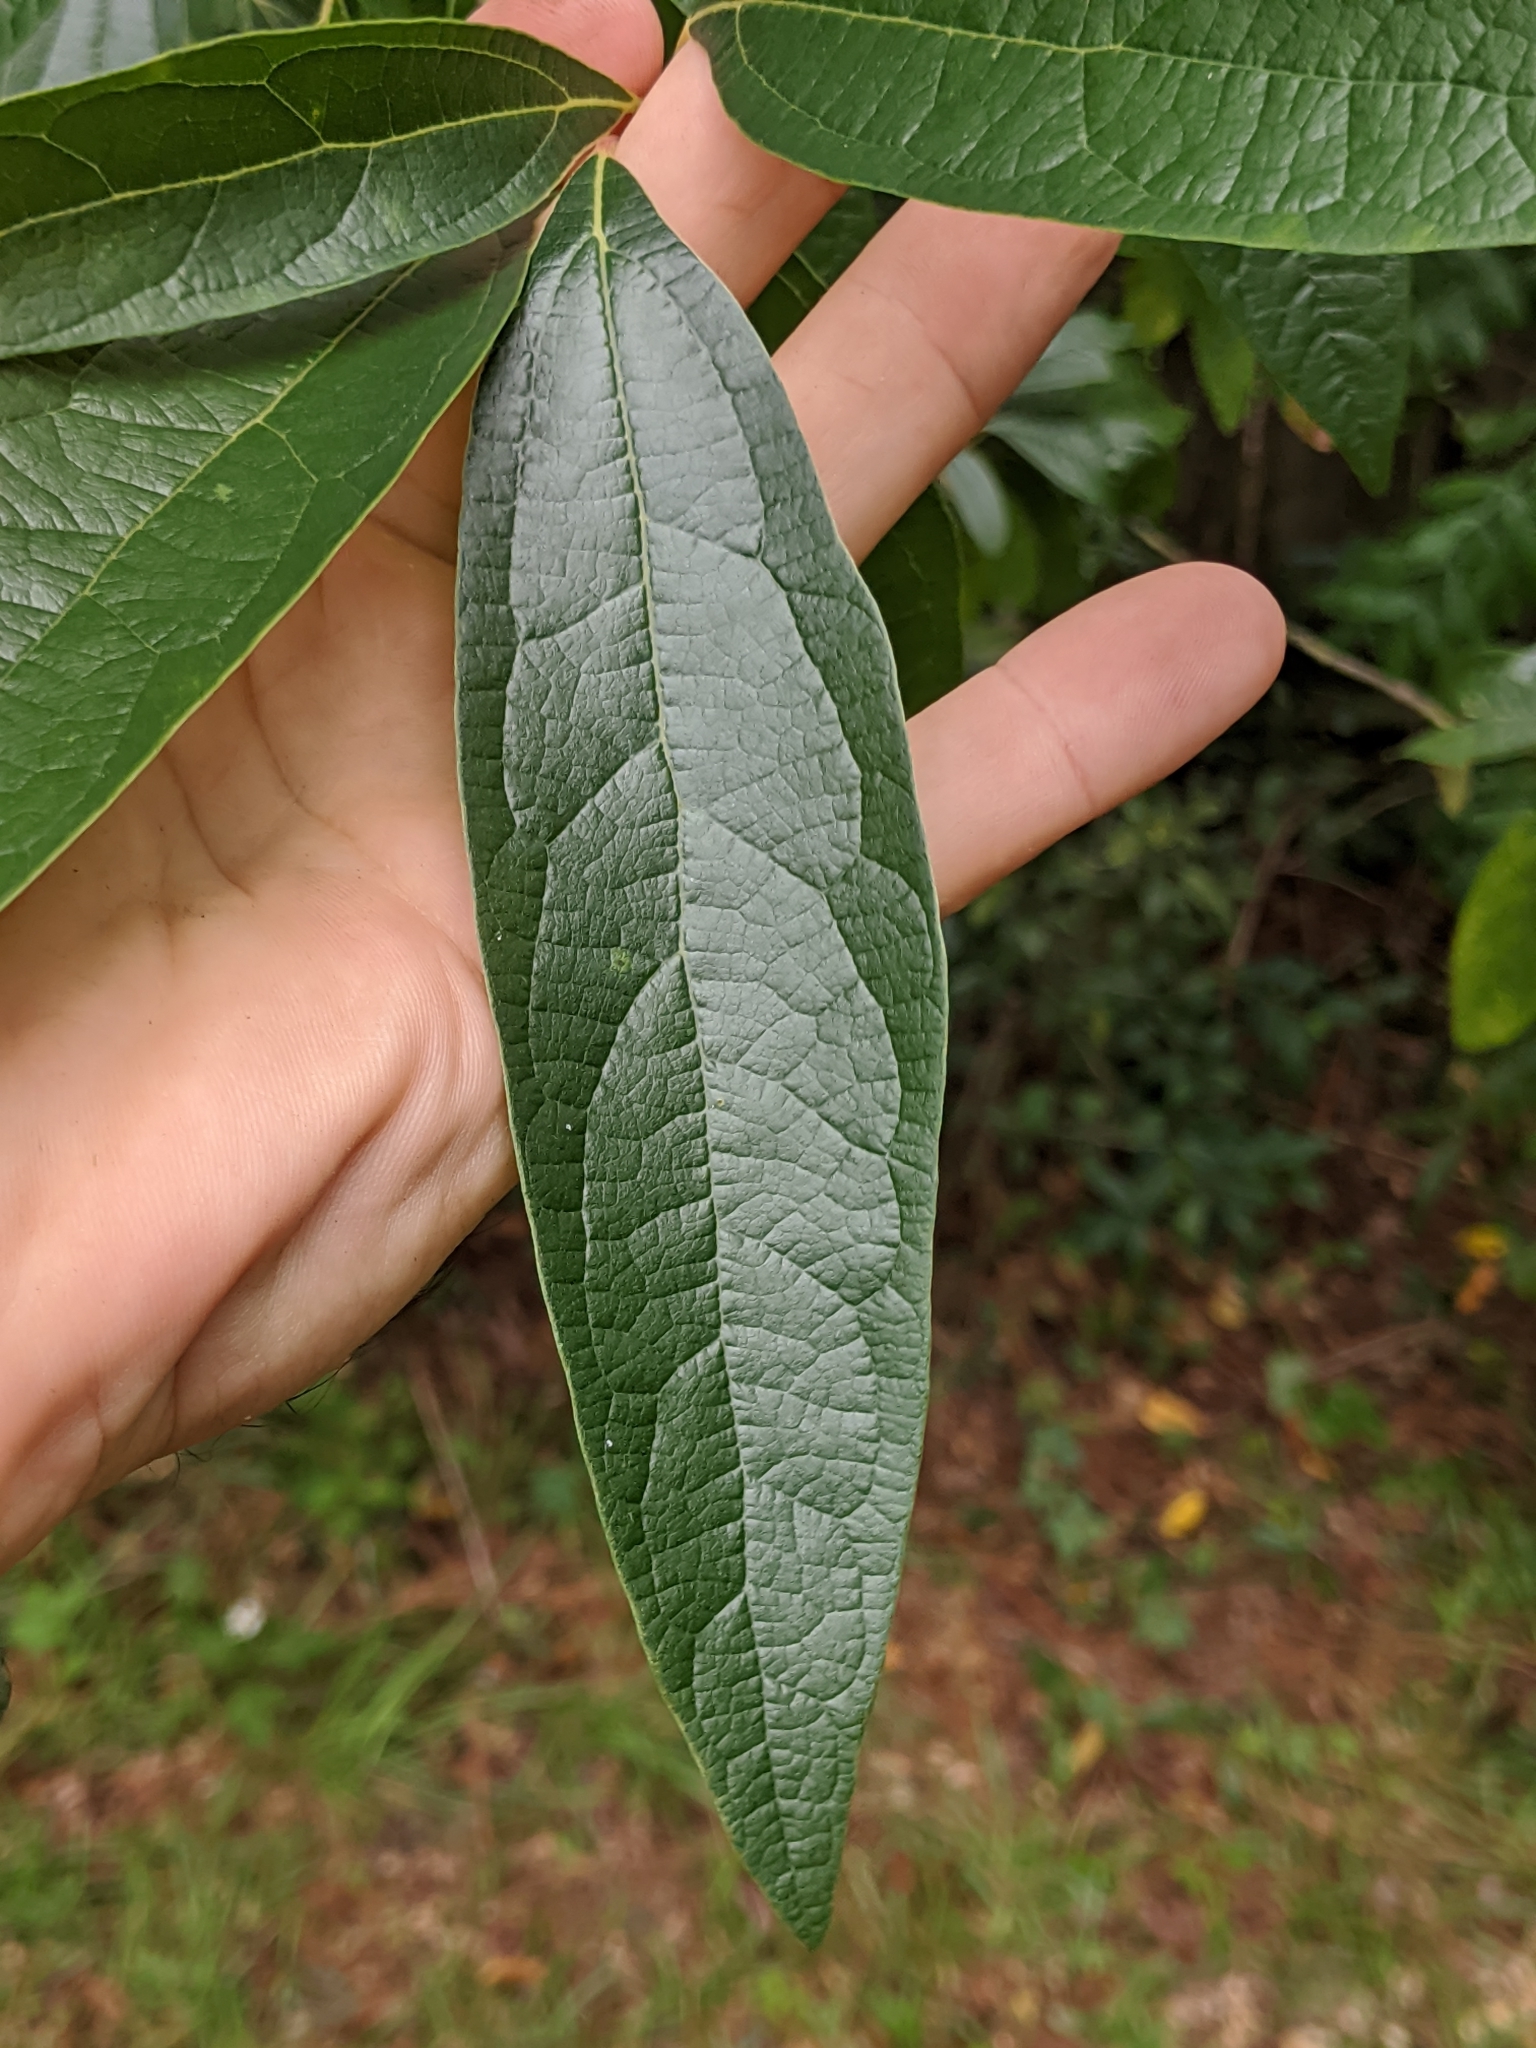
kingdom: Plantae
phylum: Tracheophyta
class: Magnoliopsida
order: Laurales
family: Lauraceae
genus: Sassafras
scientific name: Sassafras albidum
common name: Sassafras
